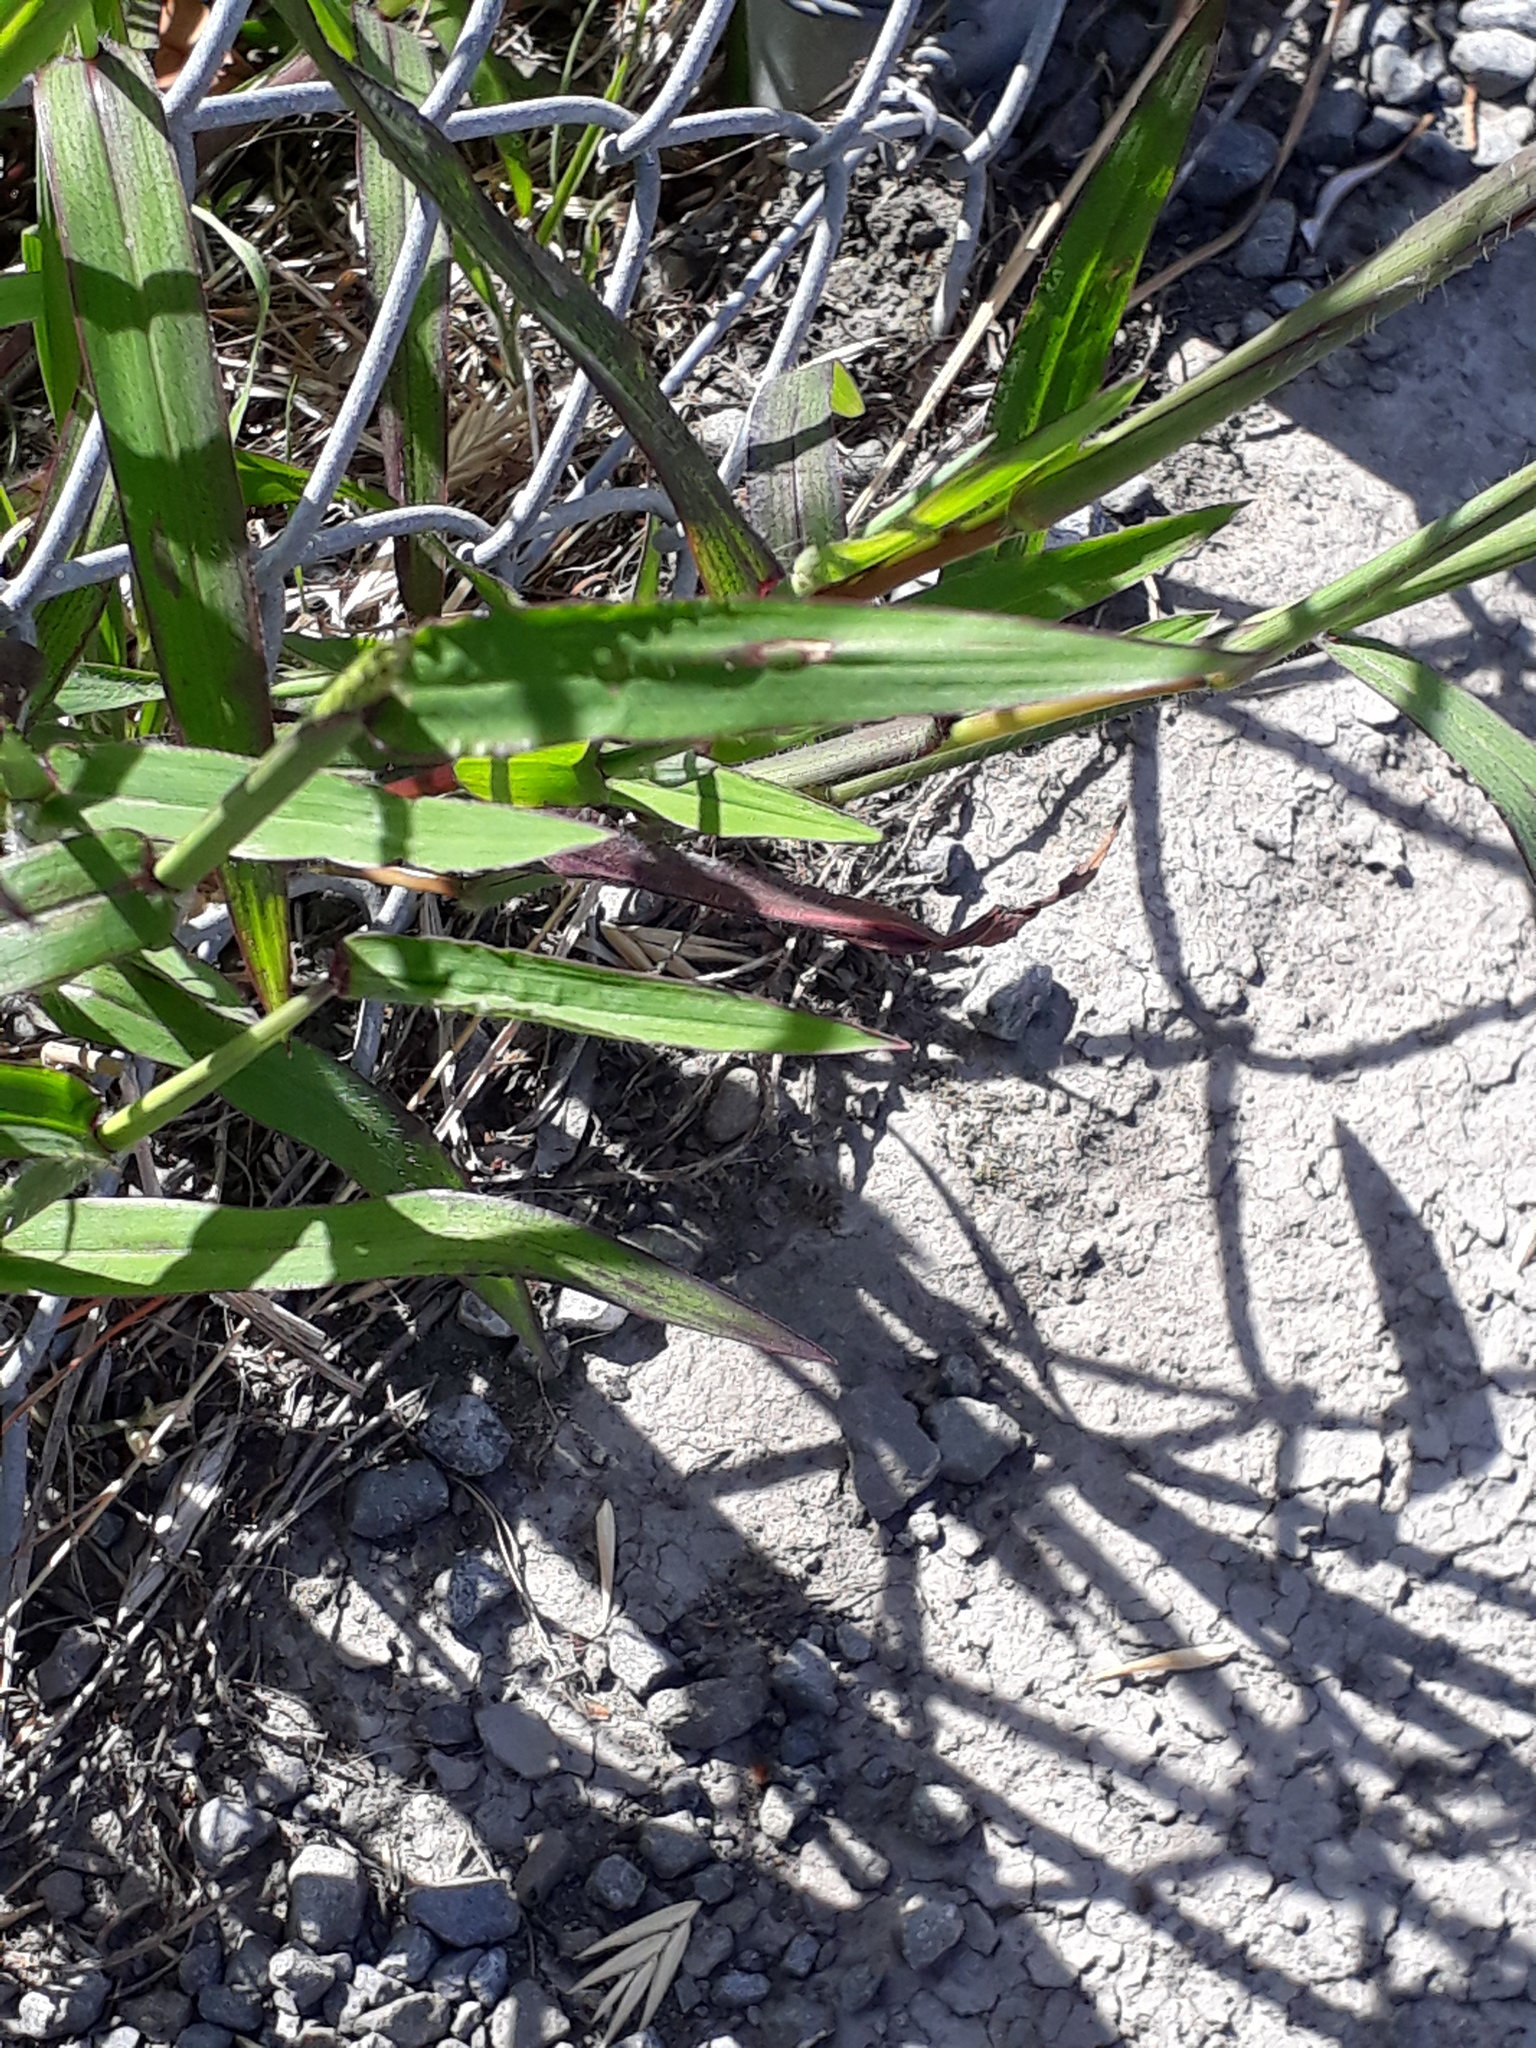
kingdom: Plantae
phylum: Tracheophyta
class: Liliopsida
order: Poales
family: Poaceae
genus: Digitaria
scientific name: Digitaria sanguinalis
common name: Hairy crabgrass
